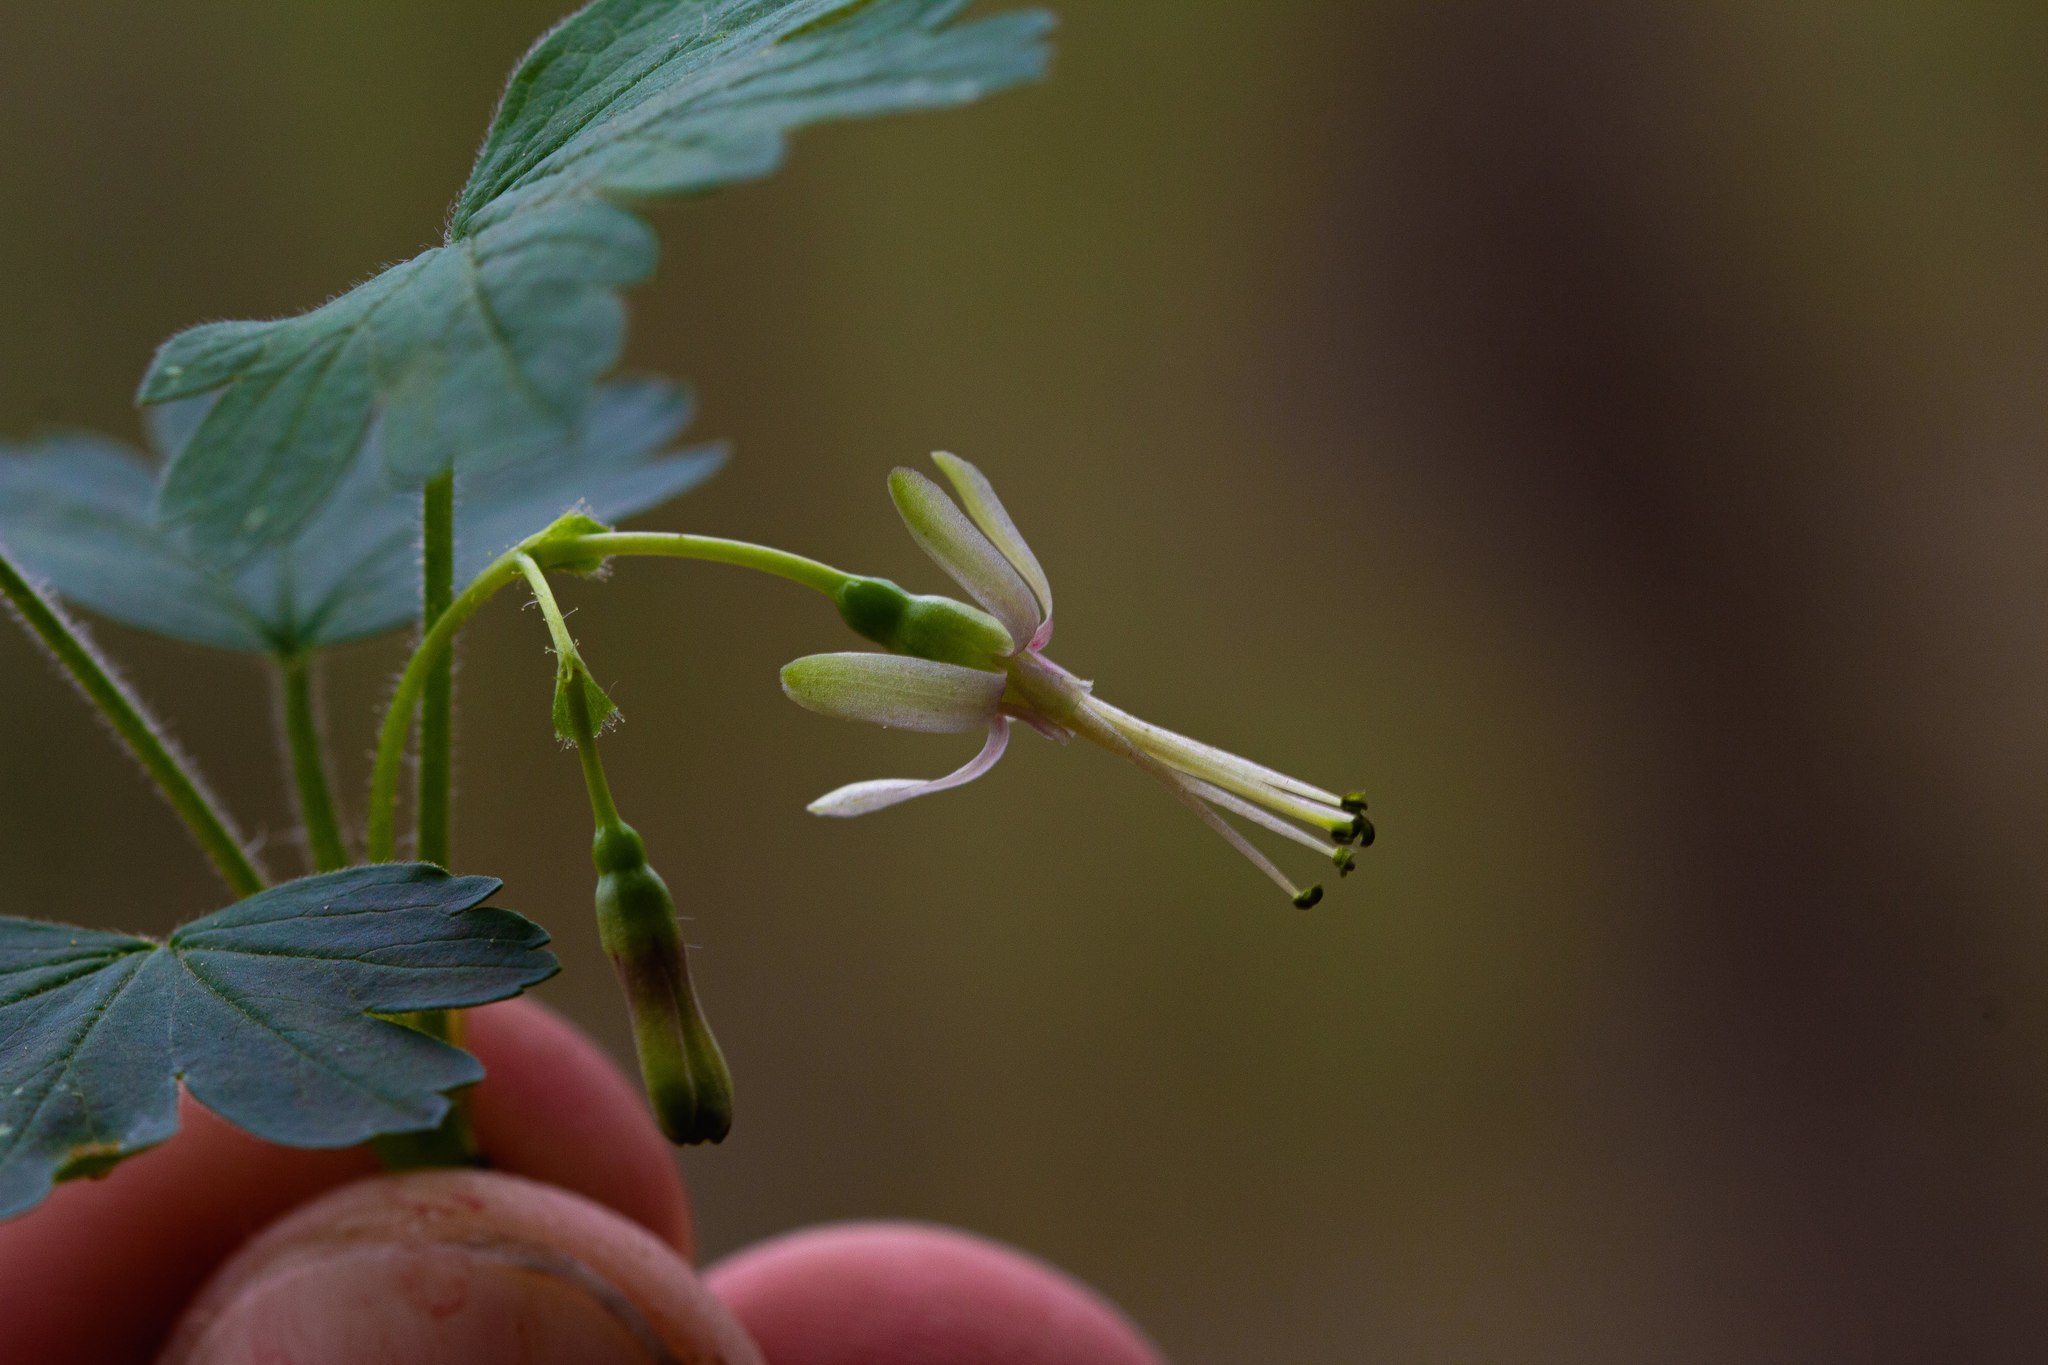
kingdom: Plantae
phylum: Tracheophyta
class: Magnoliopsida
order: Saxifragales
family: Grossulariaceae
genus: Ribes
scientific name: Ribes missouriense
